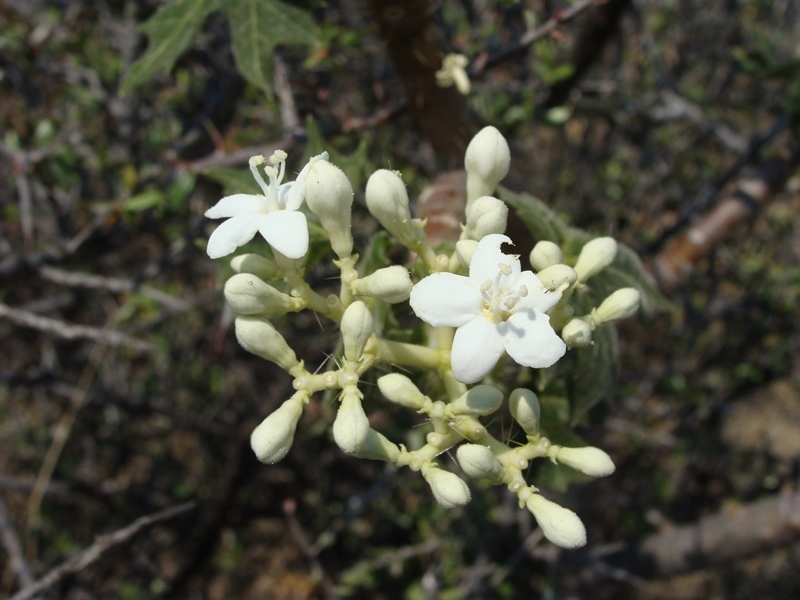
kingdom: Plantae
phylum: Tracheophyta
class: Magnoliopsida
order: Malpighiales
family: Euphorbiaceae
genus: Cnidoscolus
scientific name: Cnidoscolus tehuacanensis
